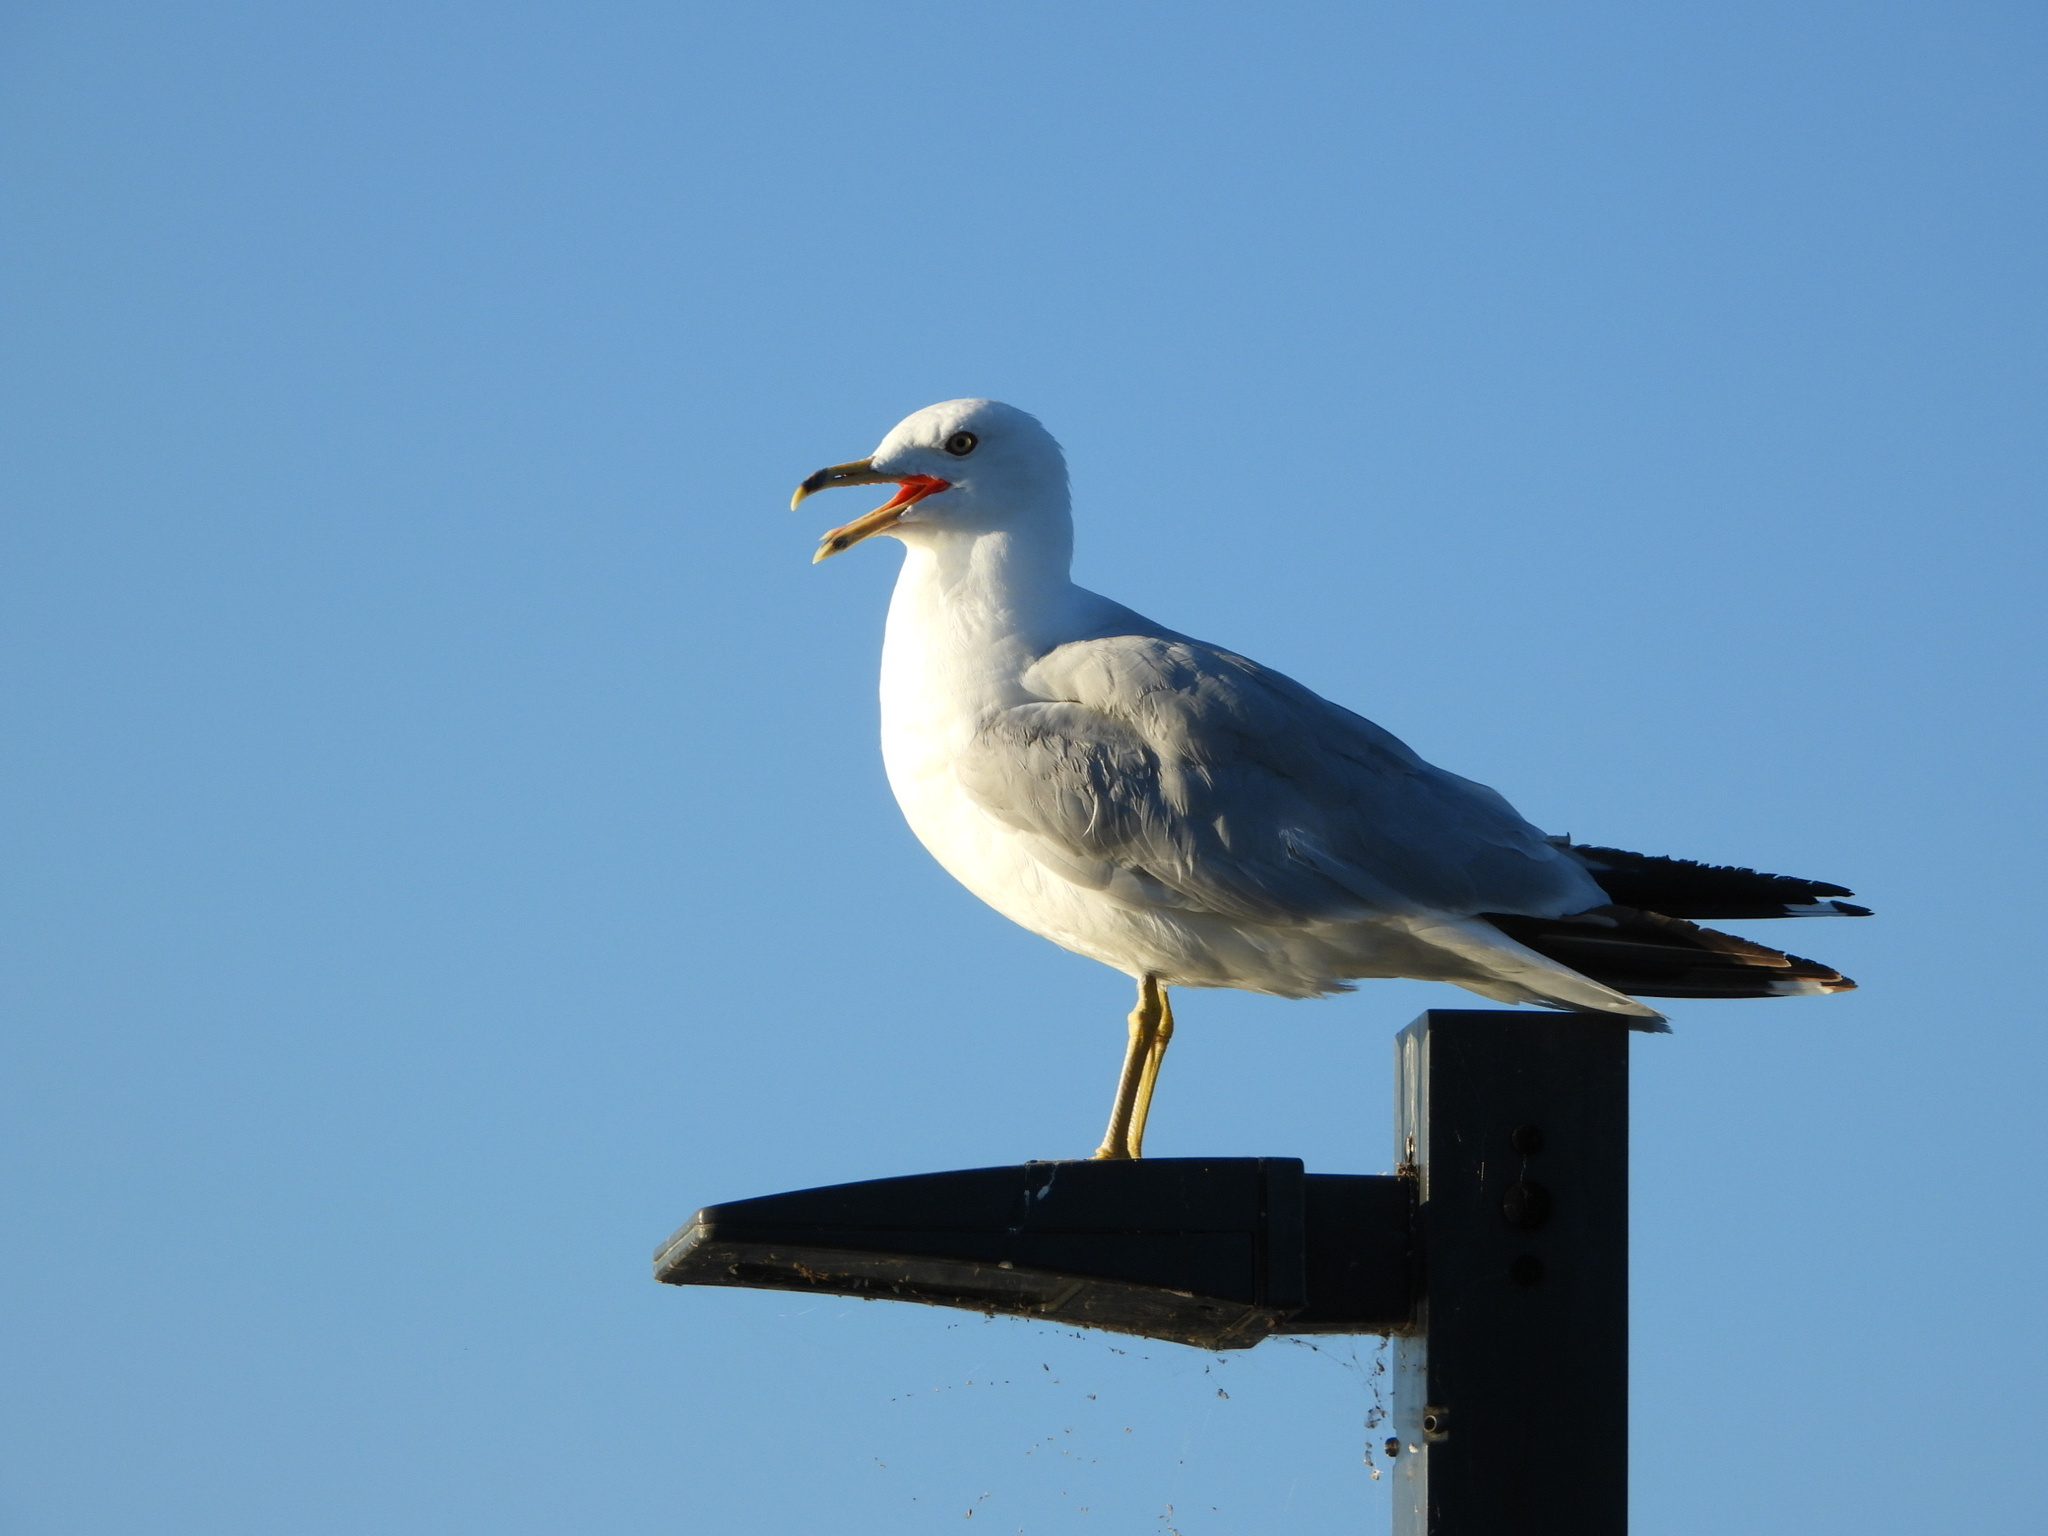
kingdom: Animalia
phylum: Chordata
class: Aves
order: Charadriiformes
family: Laridae
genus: Larus
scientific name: Larus delawarensis
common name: Ring-billed gull
